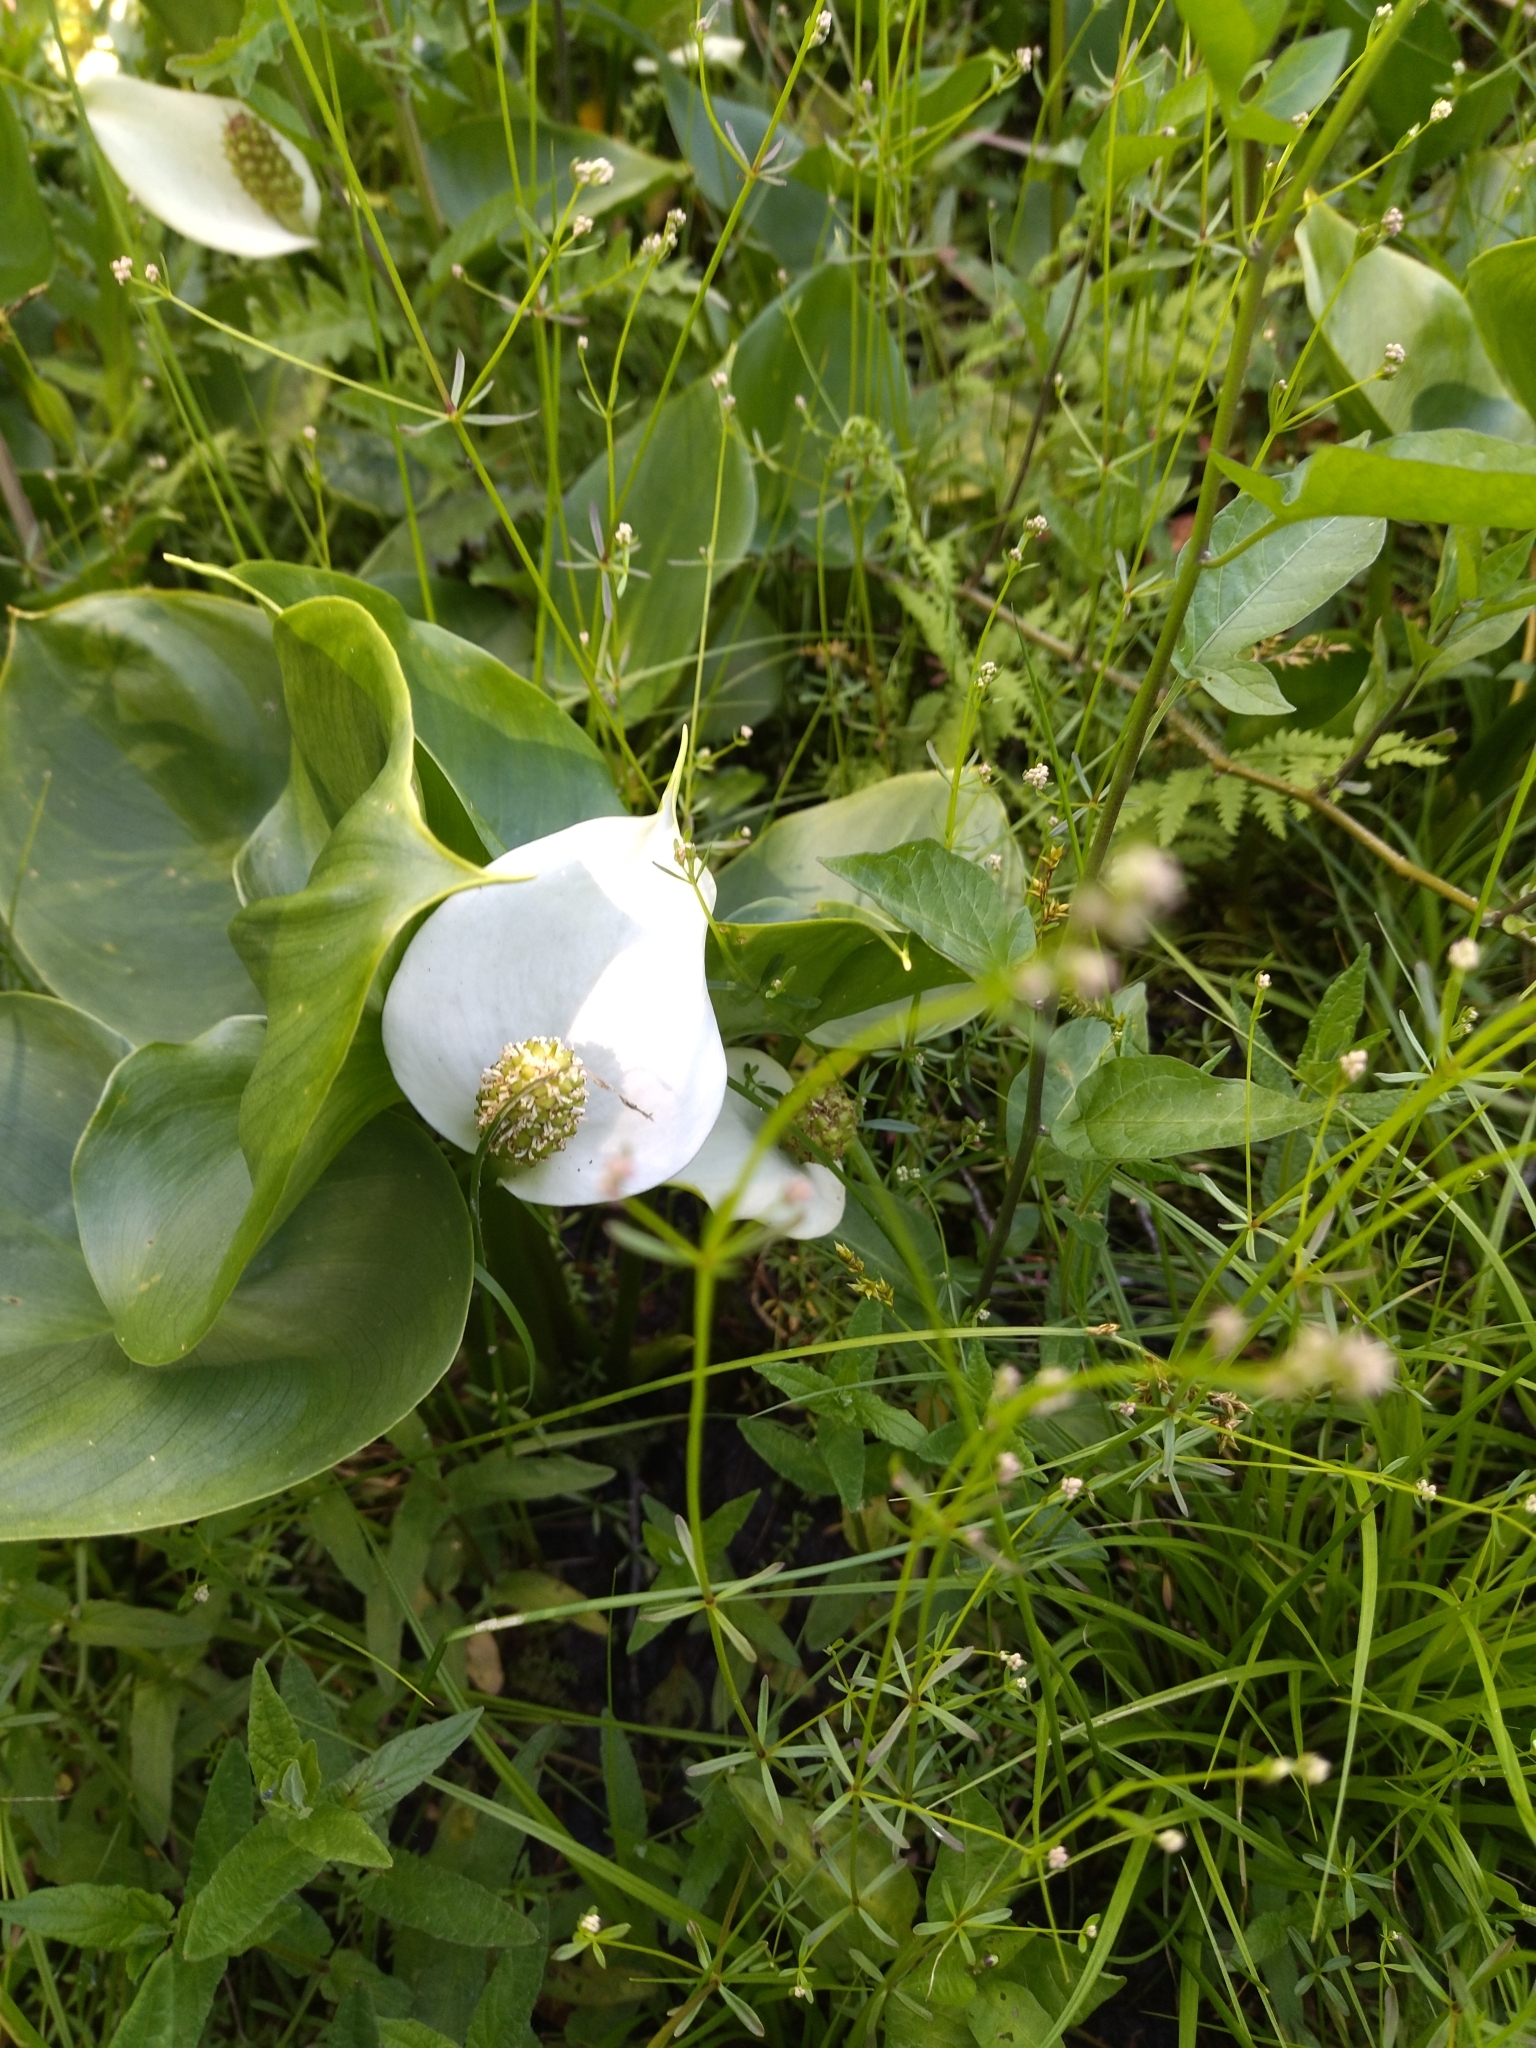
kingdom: Plantae
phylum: Tracheophyta
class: Liliopsida
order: Alismatales
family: Araceae
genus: Calla
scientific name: Calla palustris
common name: Bog arum
